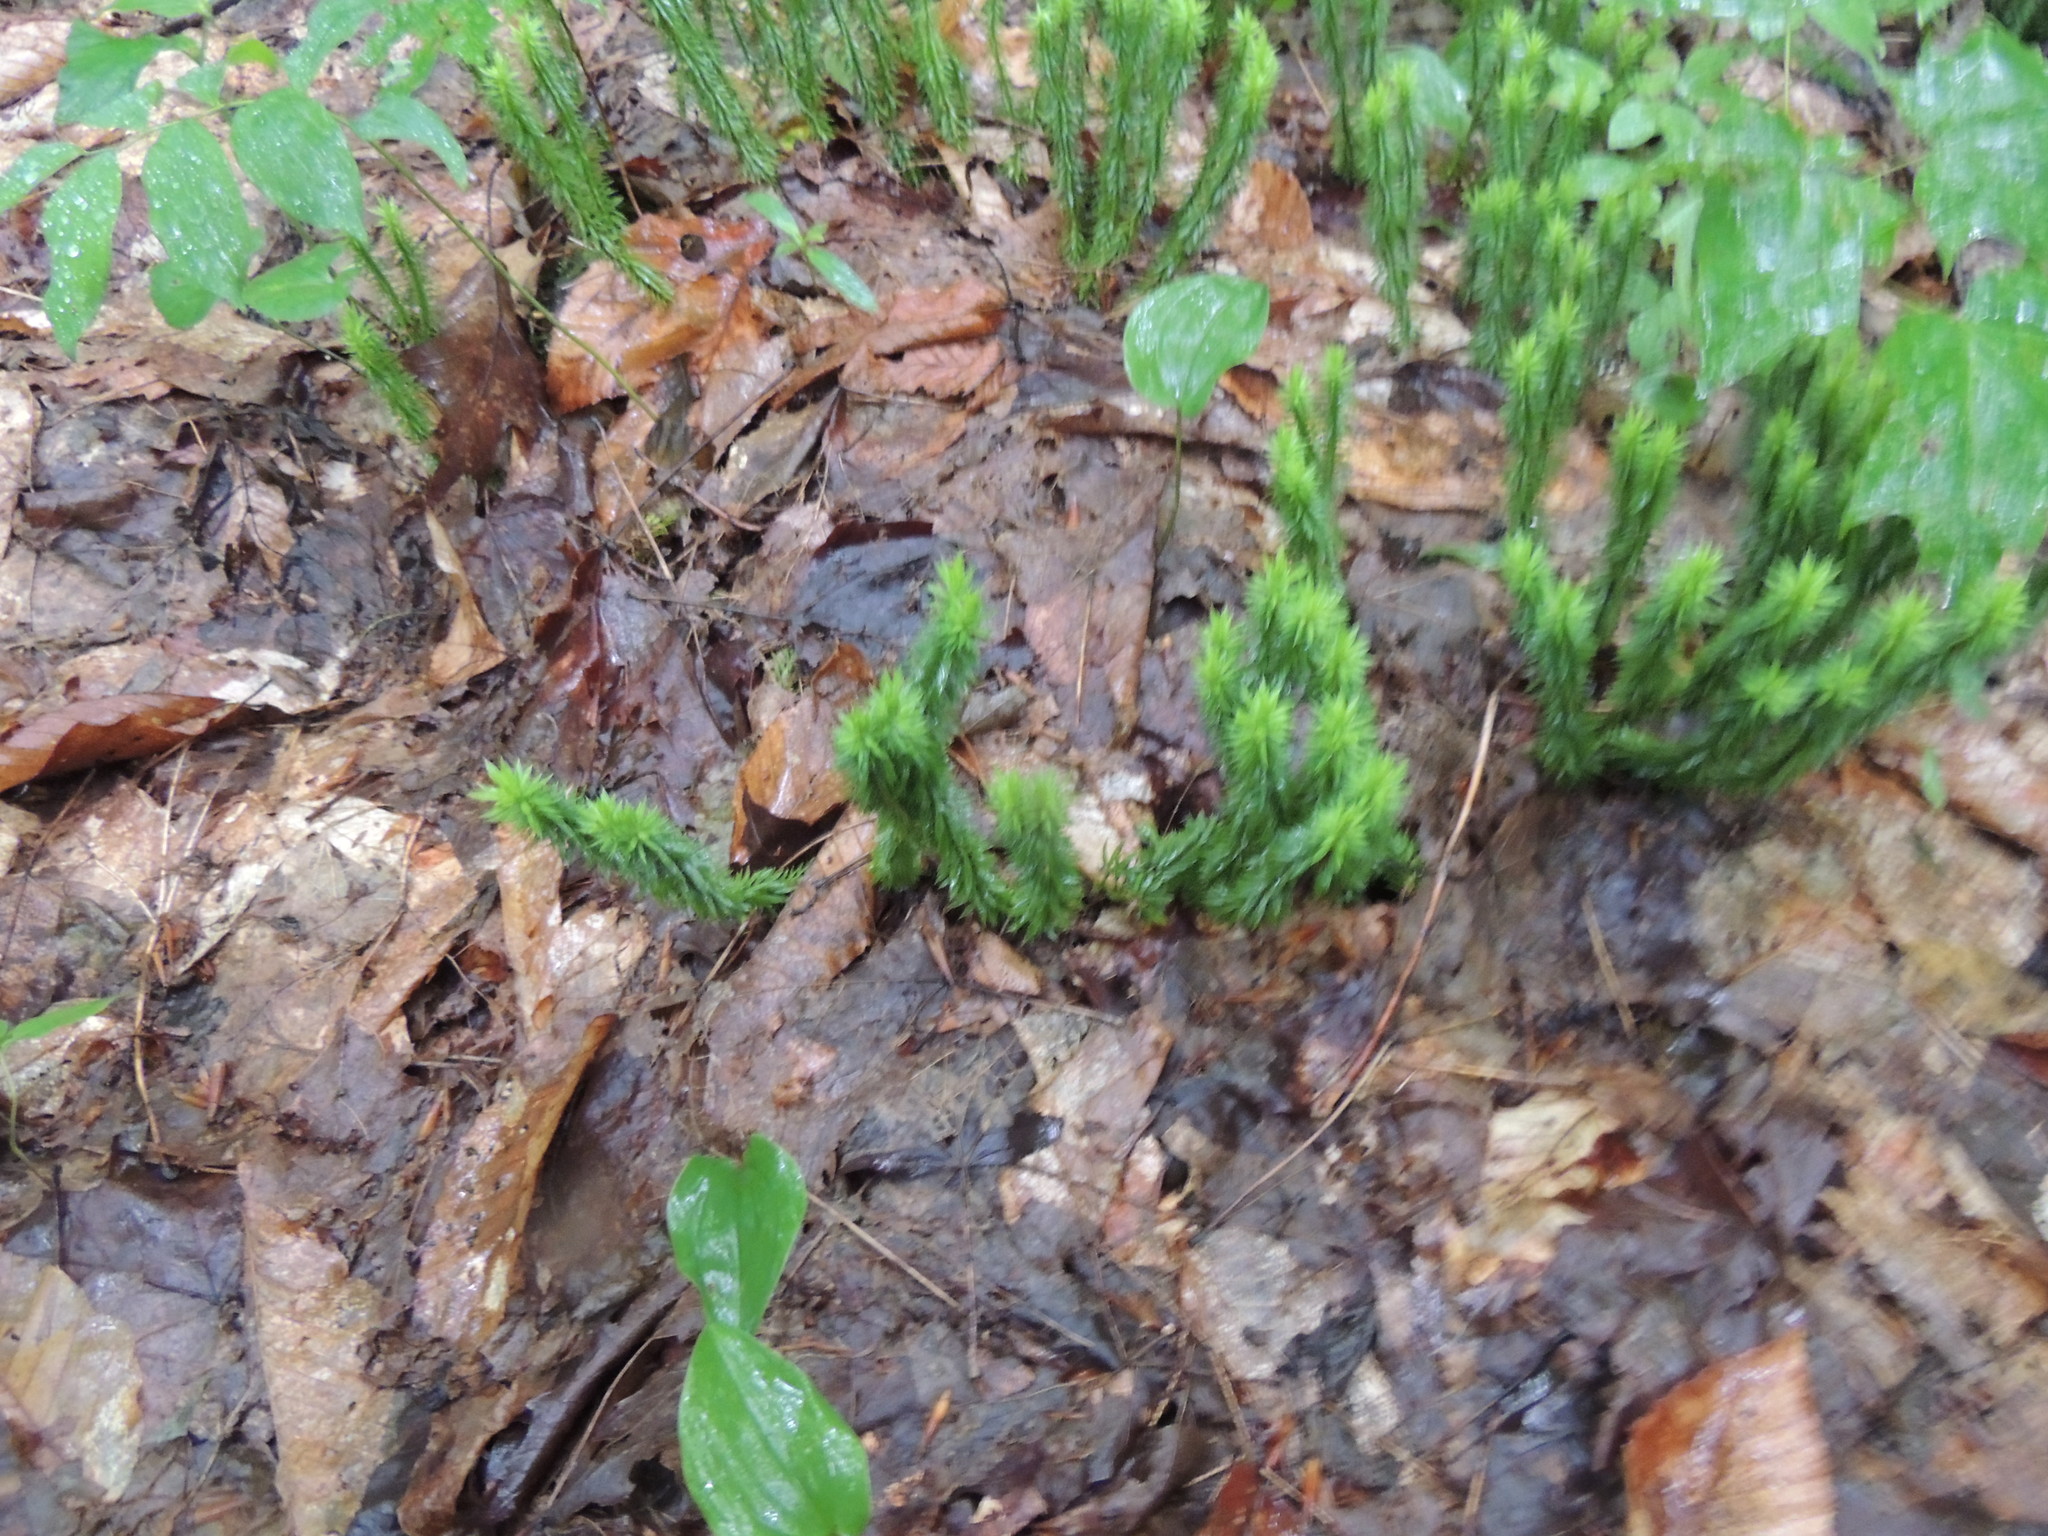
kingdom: Plantae
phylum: Tracheophyta
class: Lycopodiopsida
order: Lycopodiales
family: Lycopodiaceae
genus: Huperzia
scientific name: Huperzia lucidula
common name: Shining clubmoss
